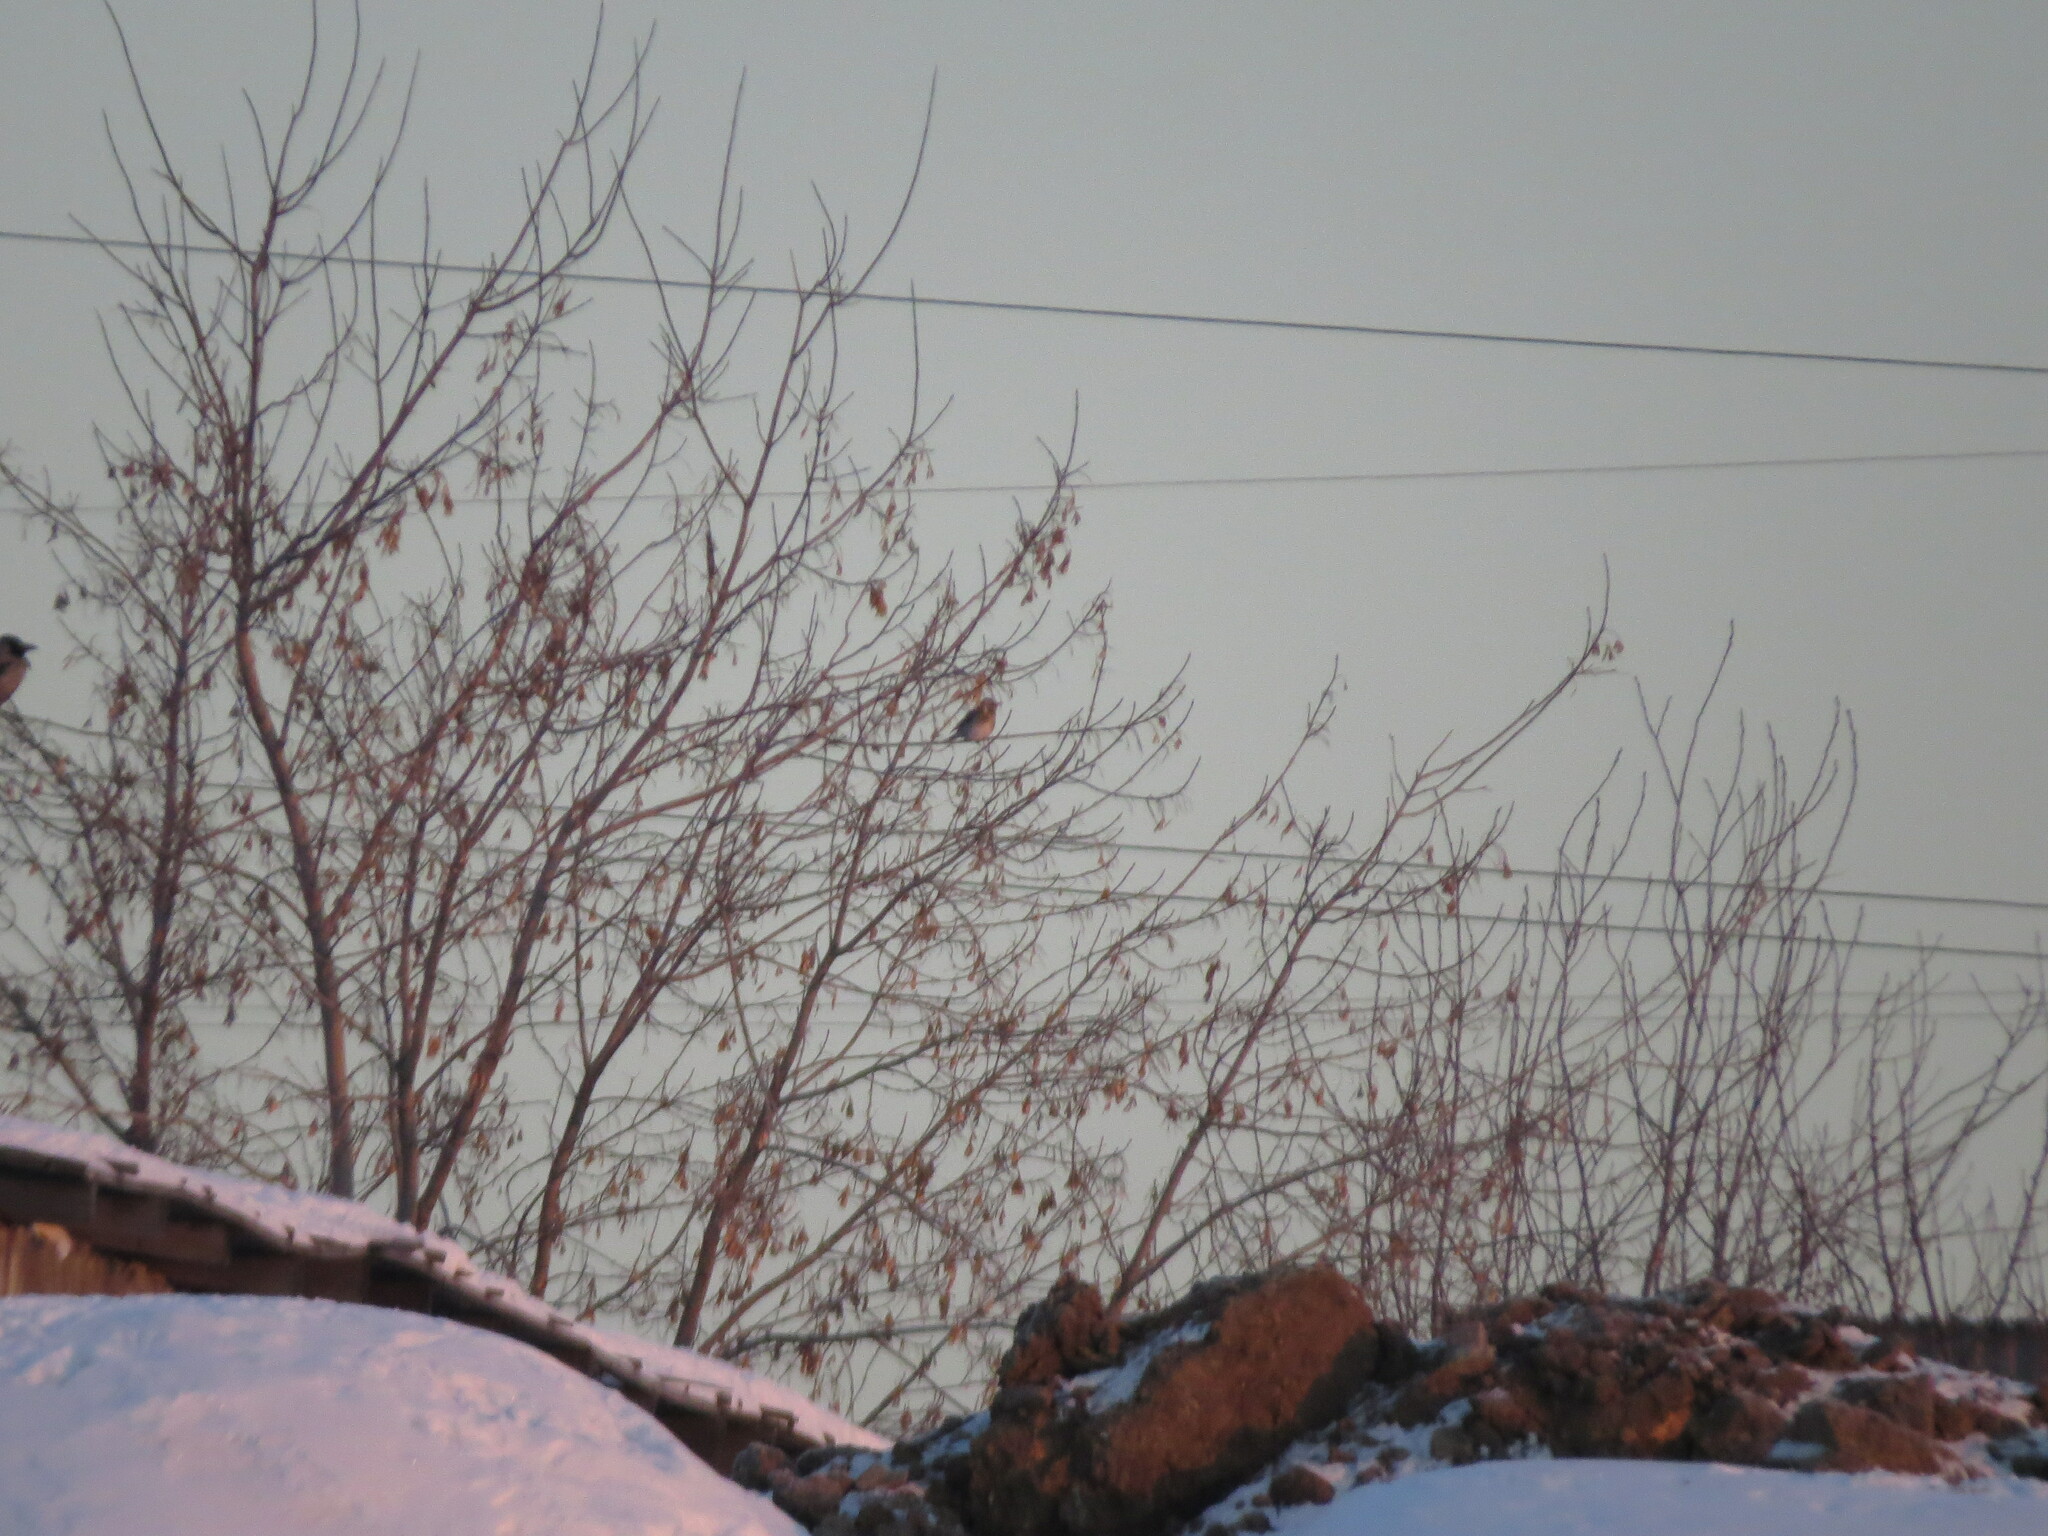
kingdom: Animalia
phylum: Chordata
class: Aves
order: Passeriformes
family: Turdidae
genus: Turdus
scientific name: Turdus pilaris
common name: Fieldfare
